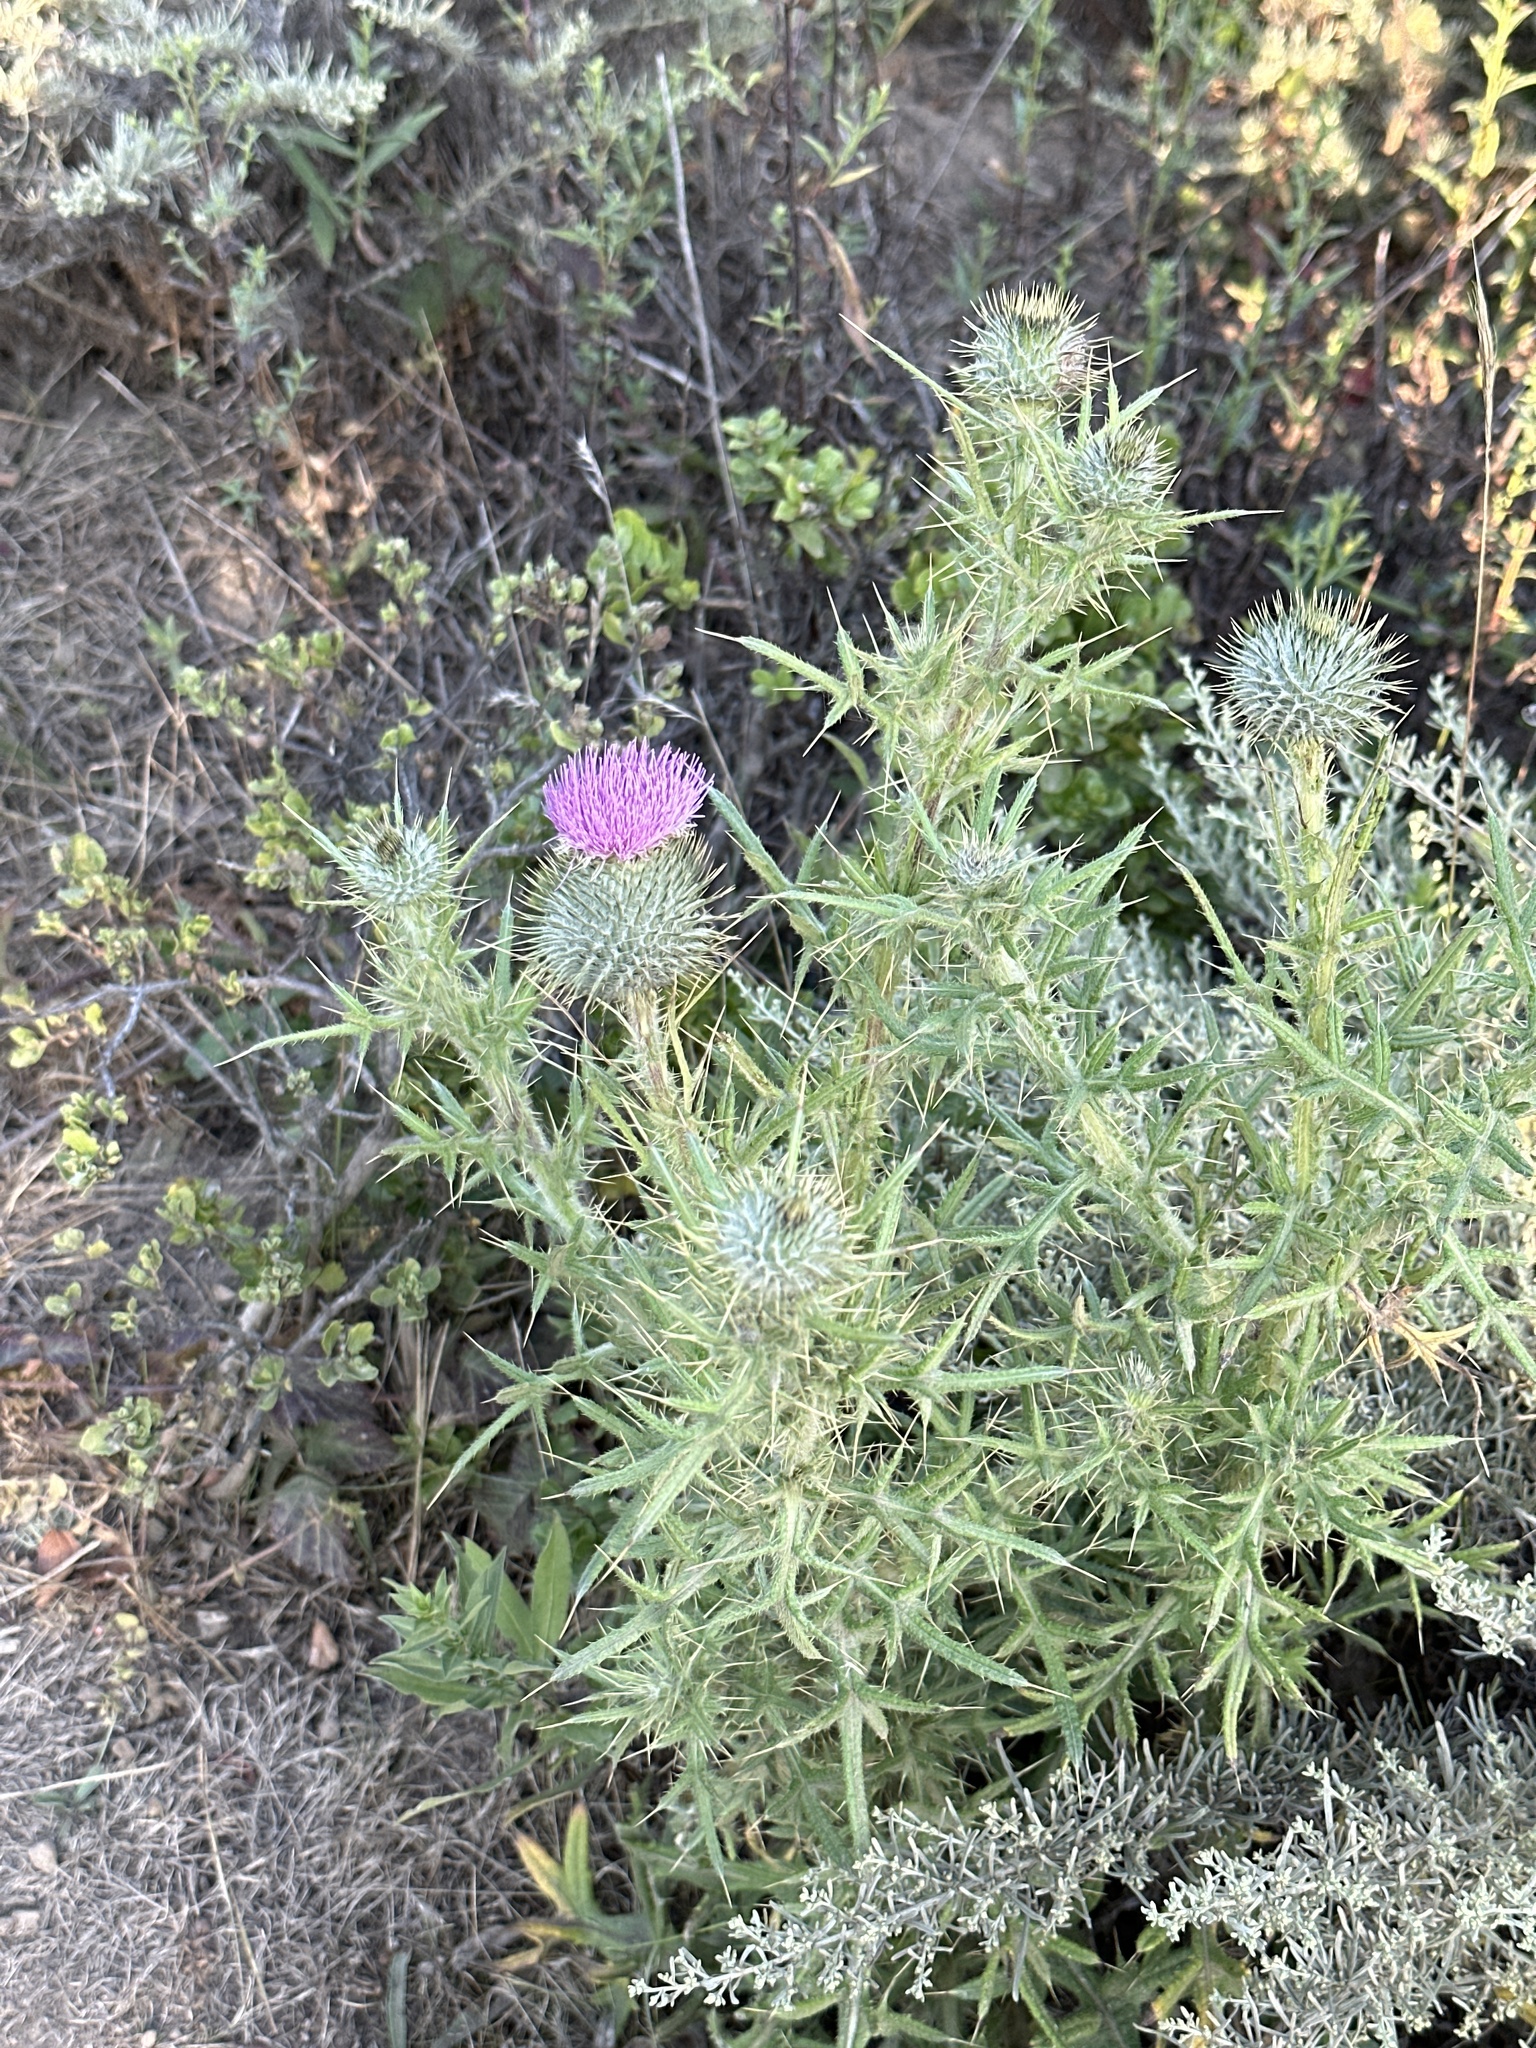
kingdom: Plantae
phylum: Tracheophyta
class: Magnoliopsida
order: Asterales
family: Asteraceae
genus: Cirsium
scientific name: Cirsium vulgare
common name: Bull thistle
